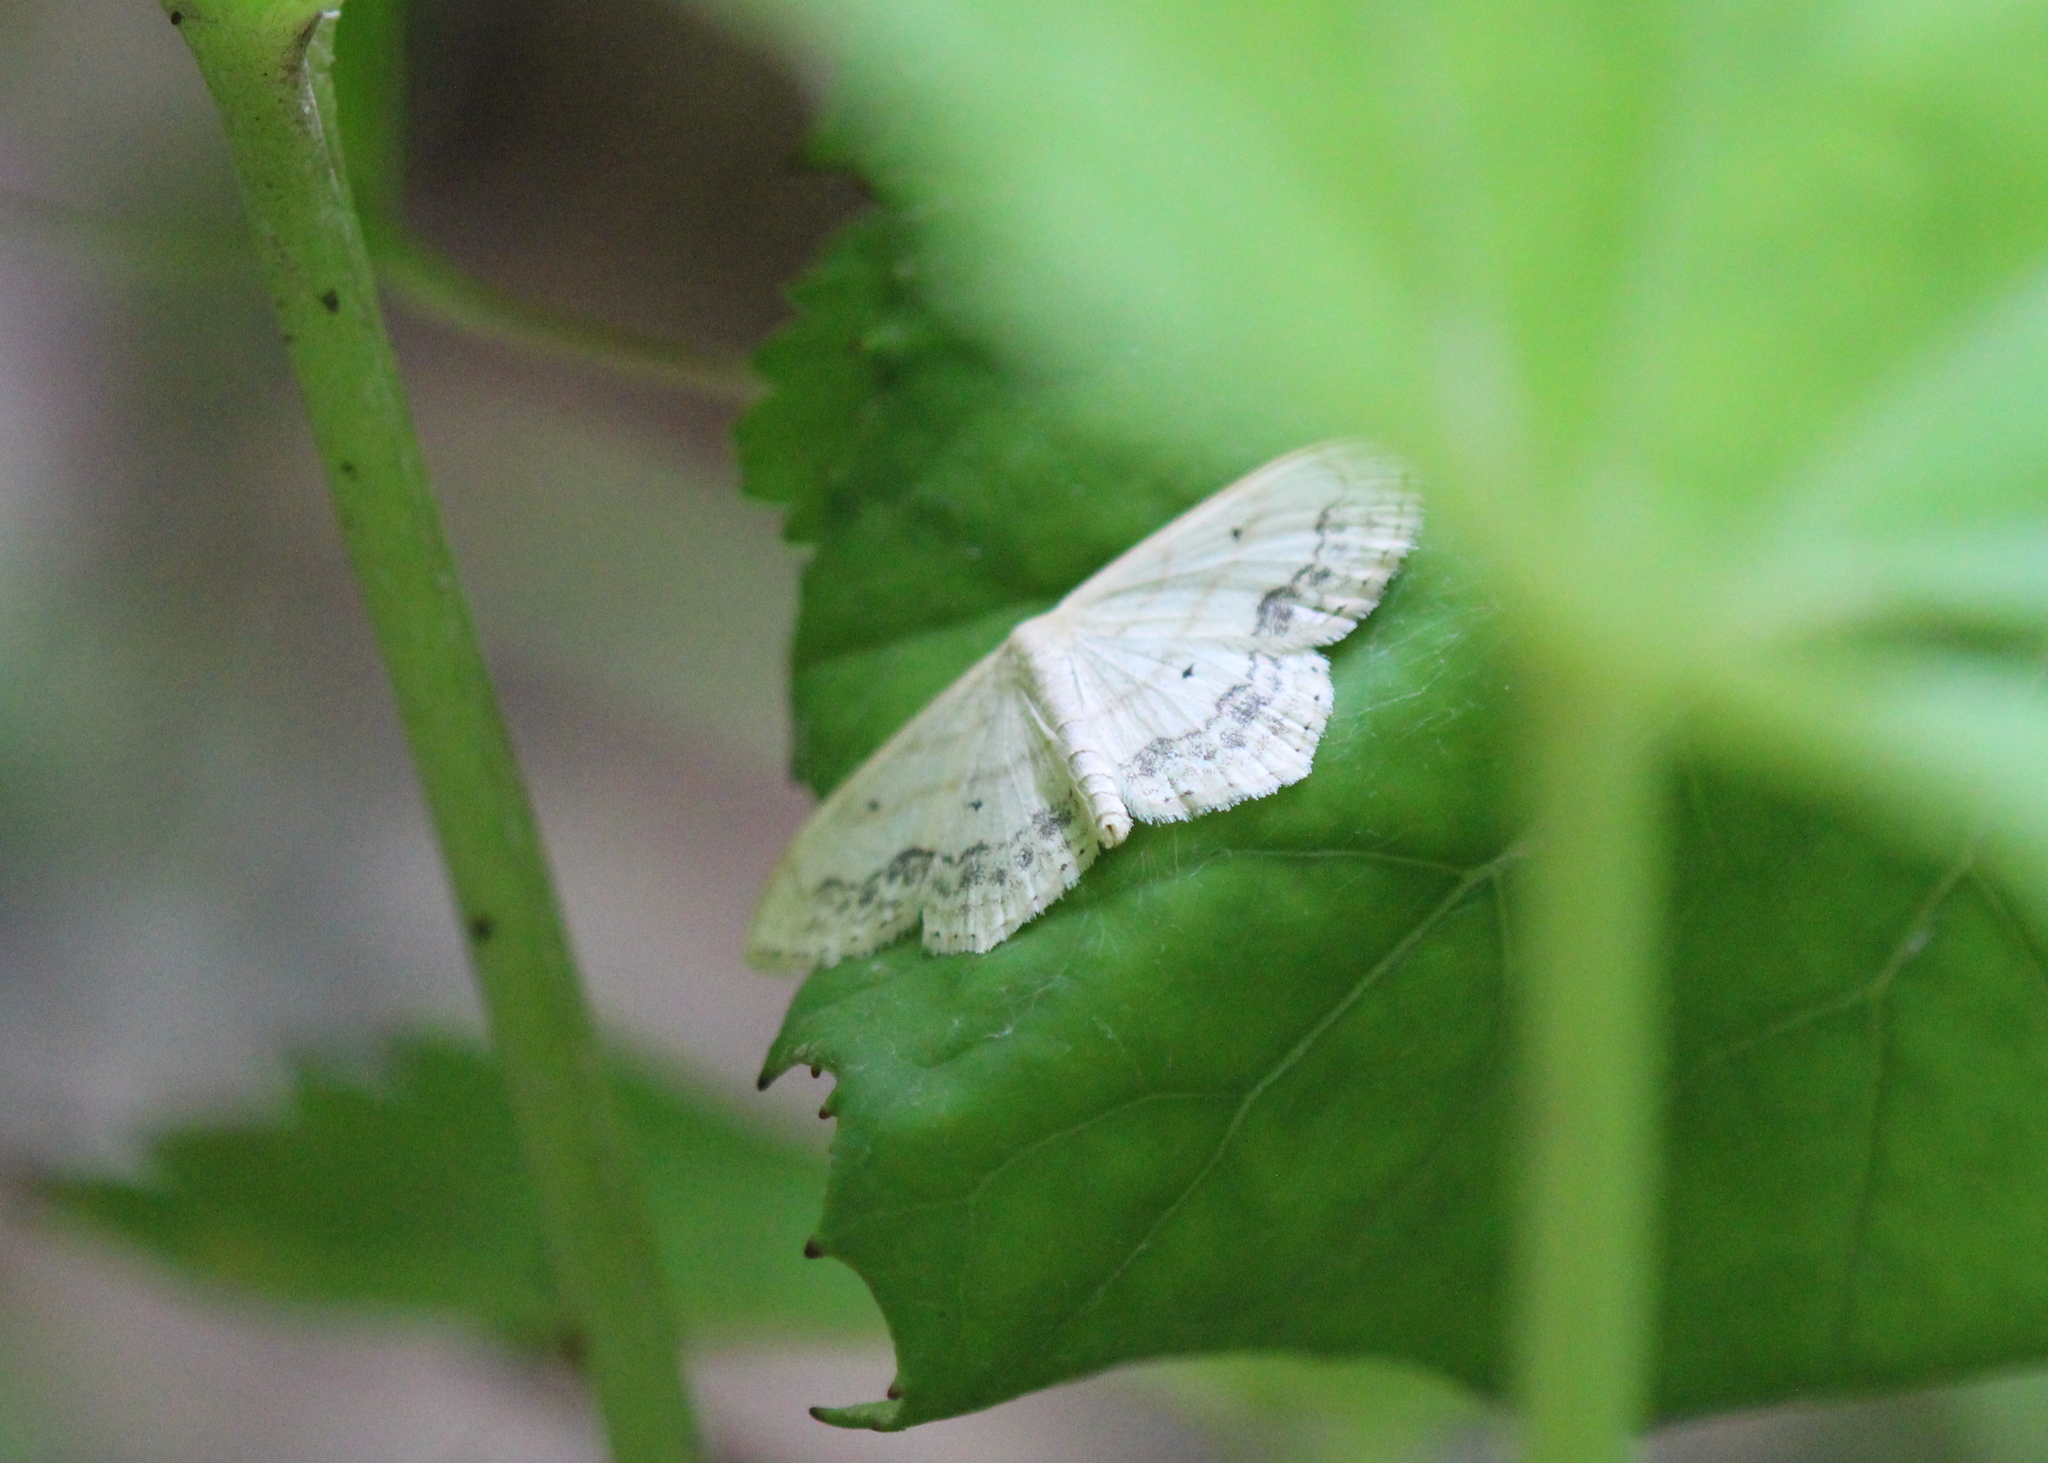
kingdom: Animalia
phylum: Arthropoda
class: Insecta
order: Lepidoptera
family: Geometridae
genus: Scopula
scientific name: Scopula limboundata
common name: Large lace border
